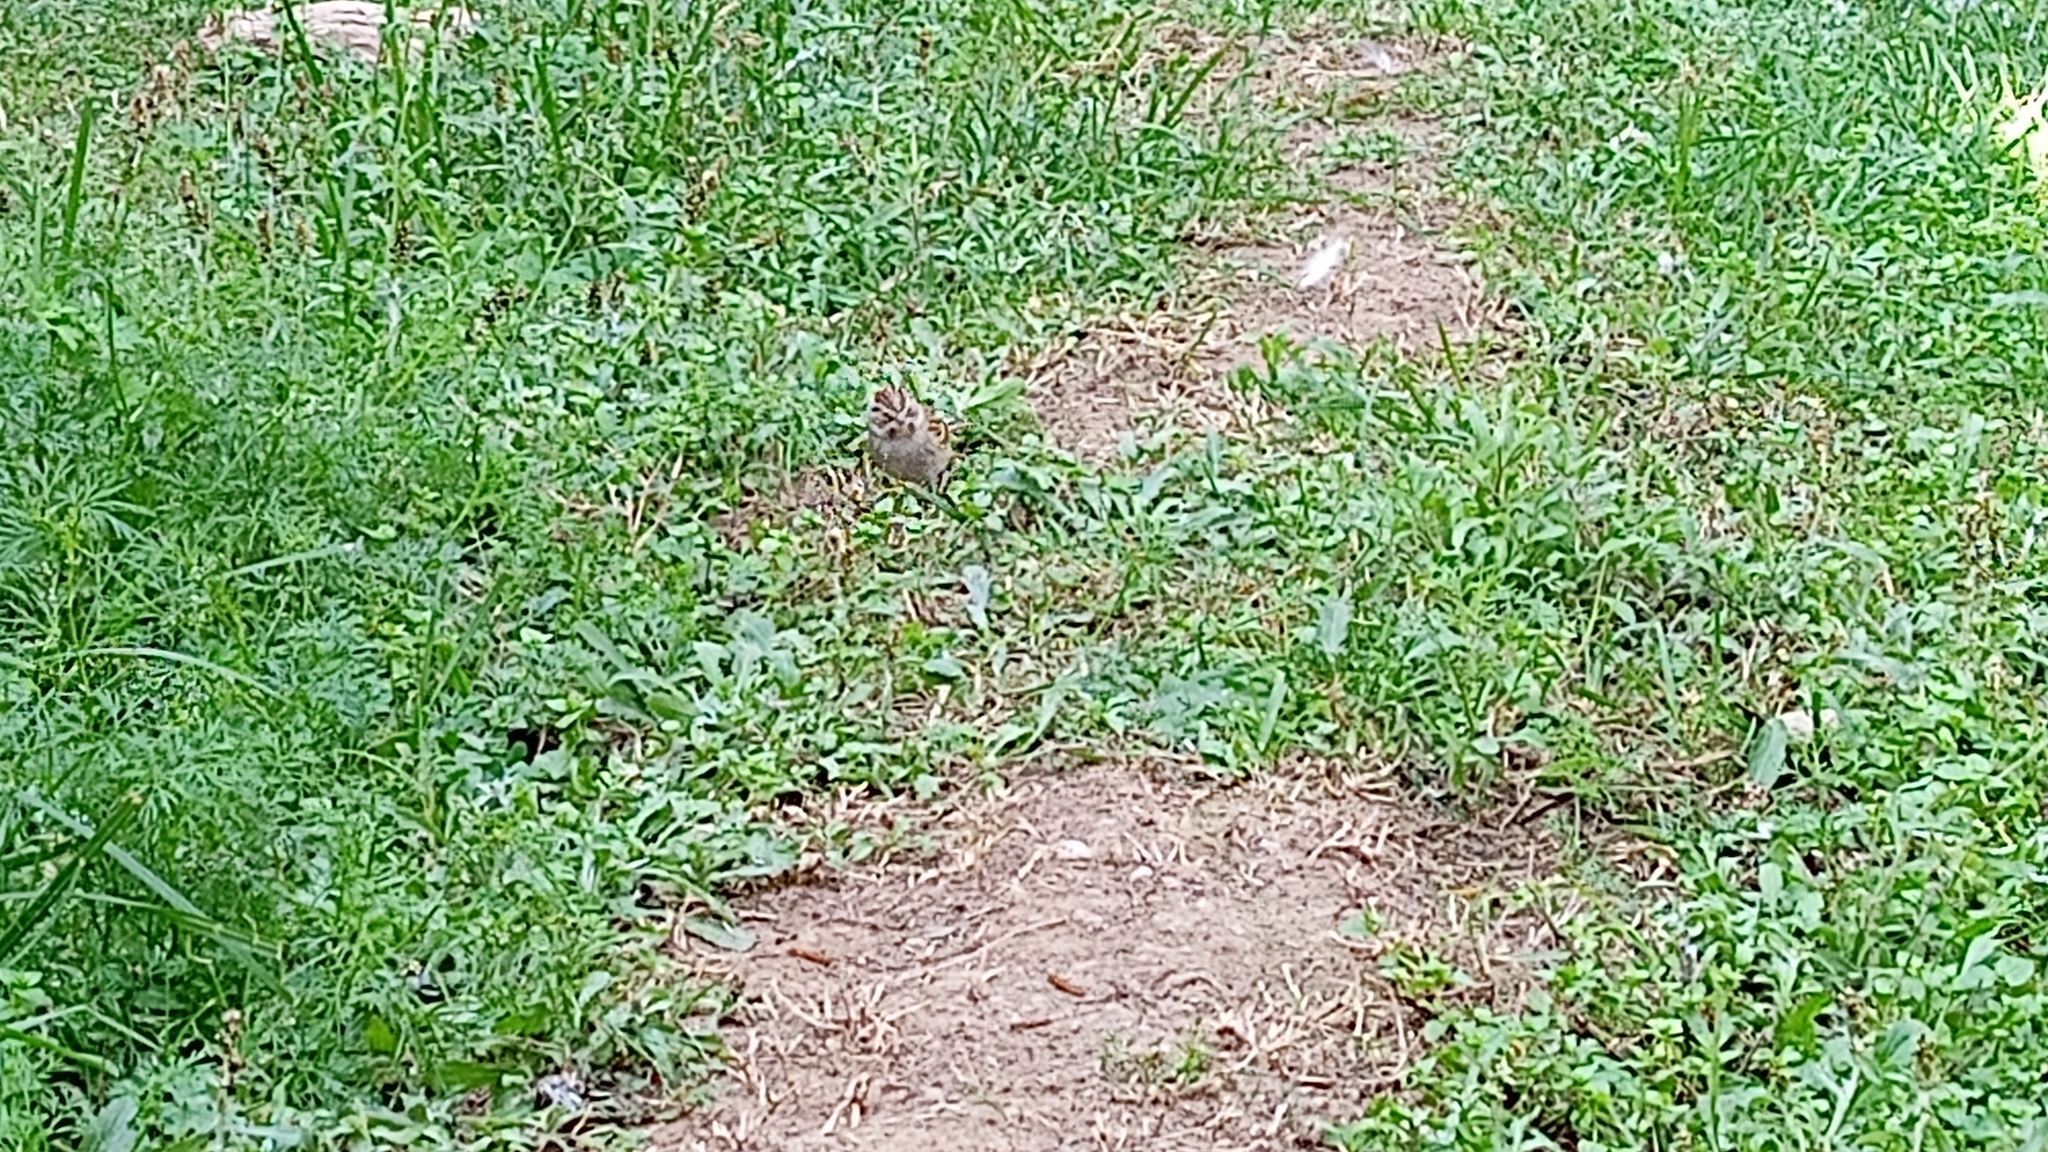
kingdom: Animalia
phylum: Chordata
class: Aves
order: Passeriformes
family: Passerellidae
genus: Spizella
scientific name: Spizella passerina
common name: Chipping sparrow
